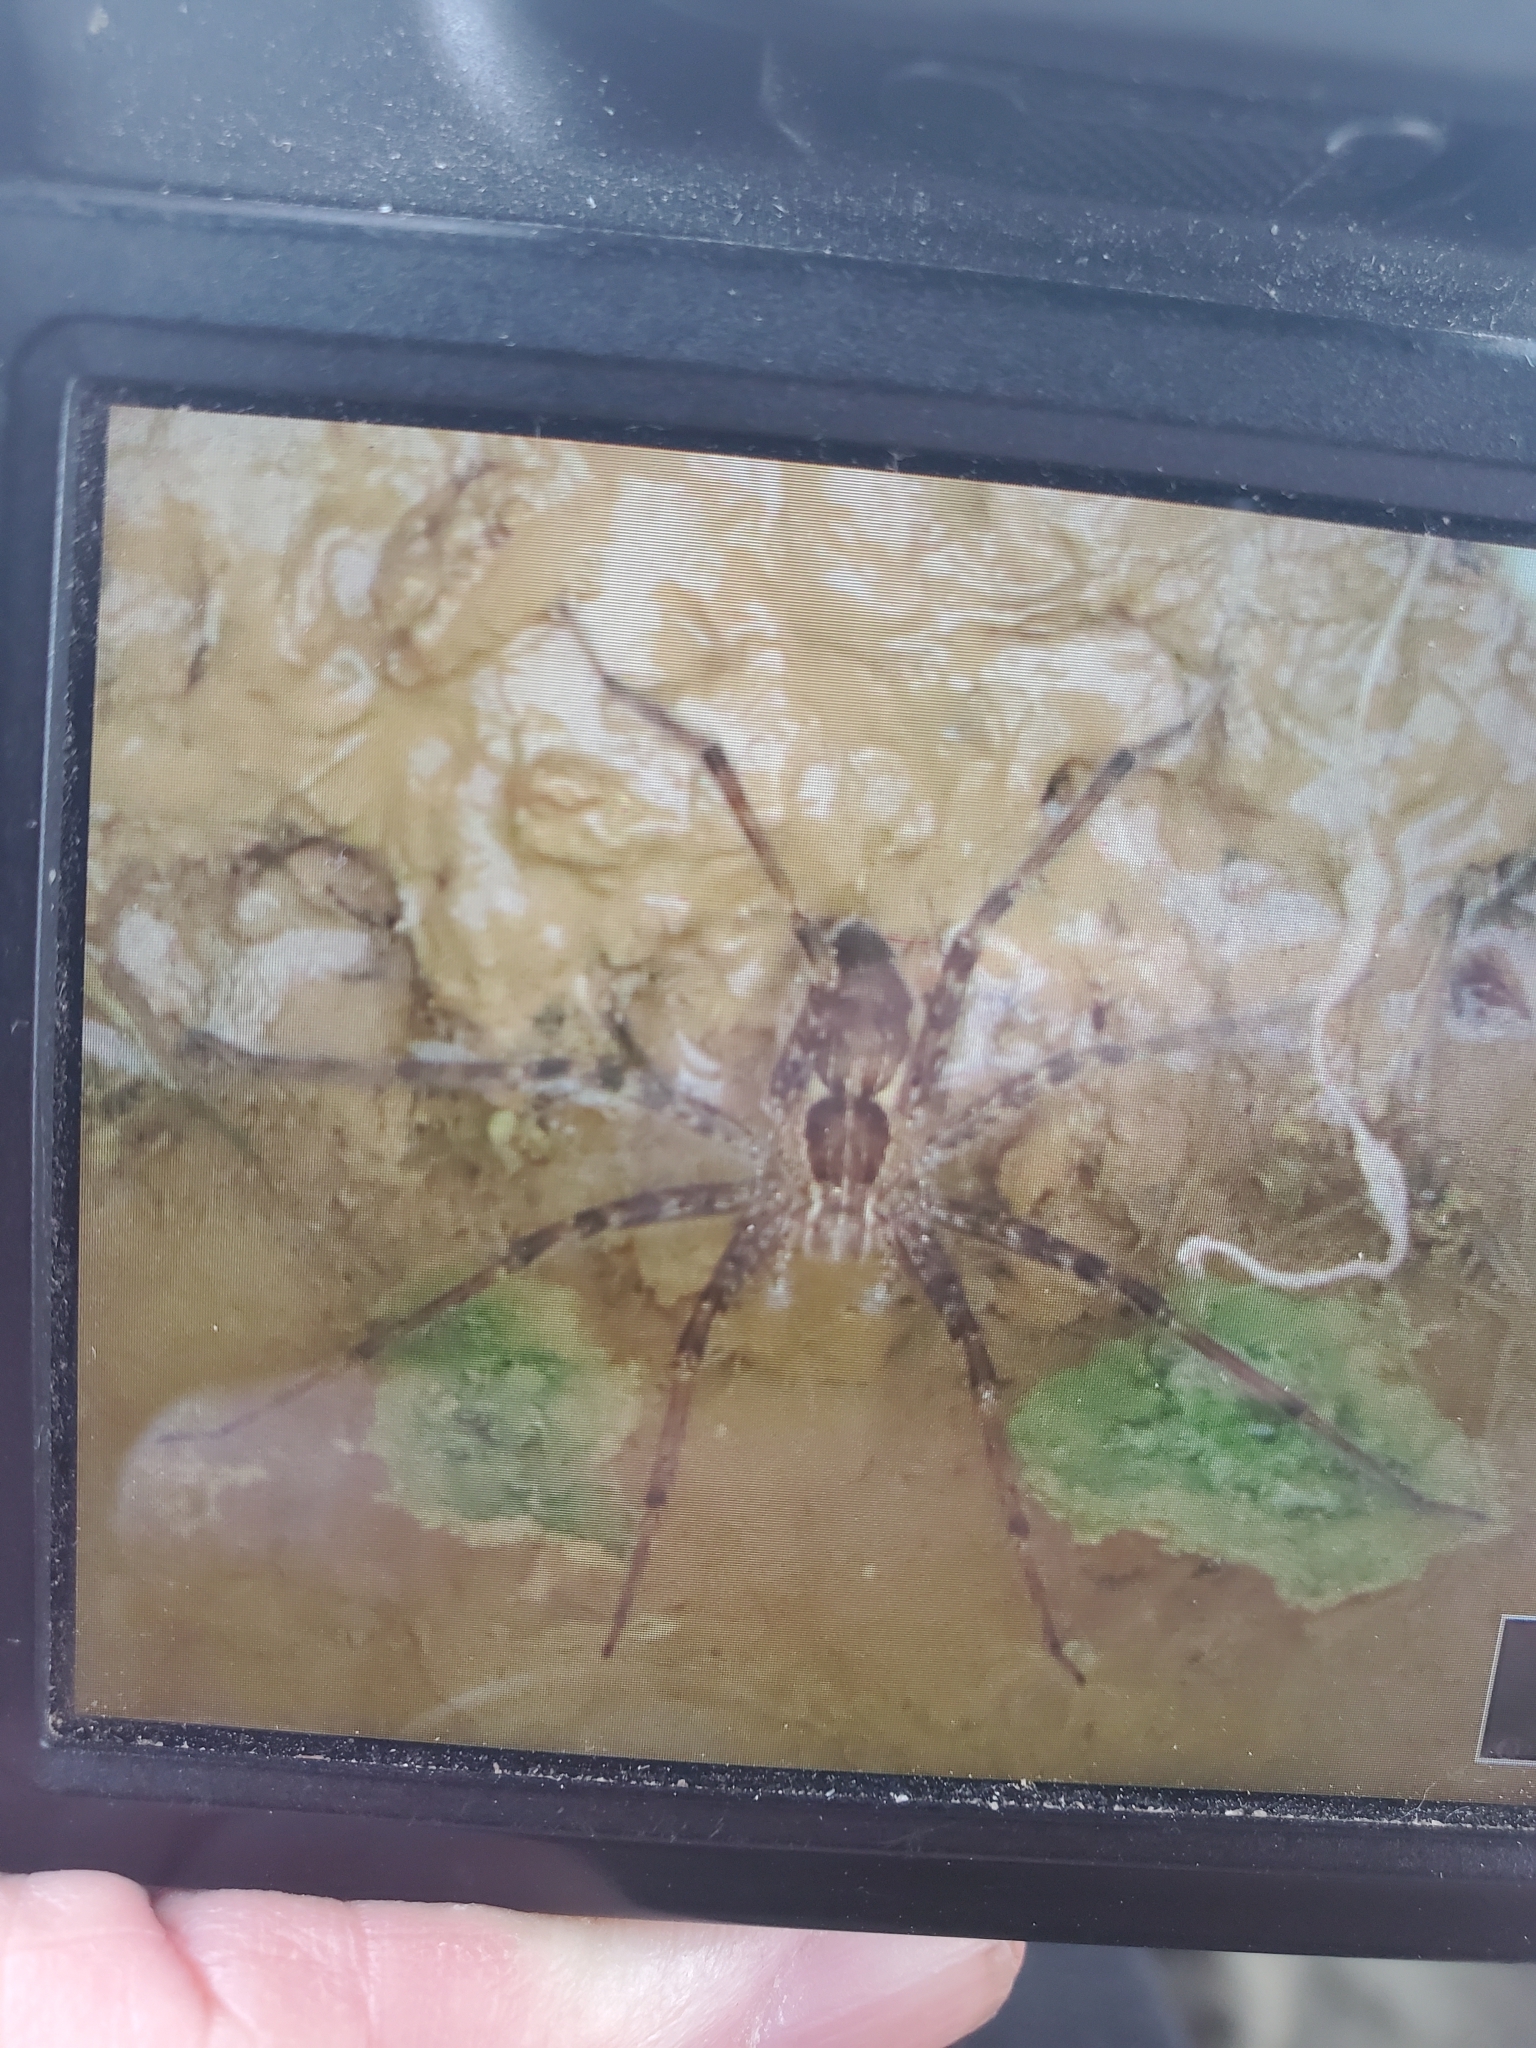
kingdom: Animalia
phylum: Arthropoda
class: Arachnida
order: Araneae
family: Pisauridae
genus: Tinus
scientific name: Tinus peregrinus
